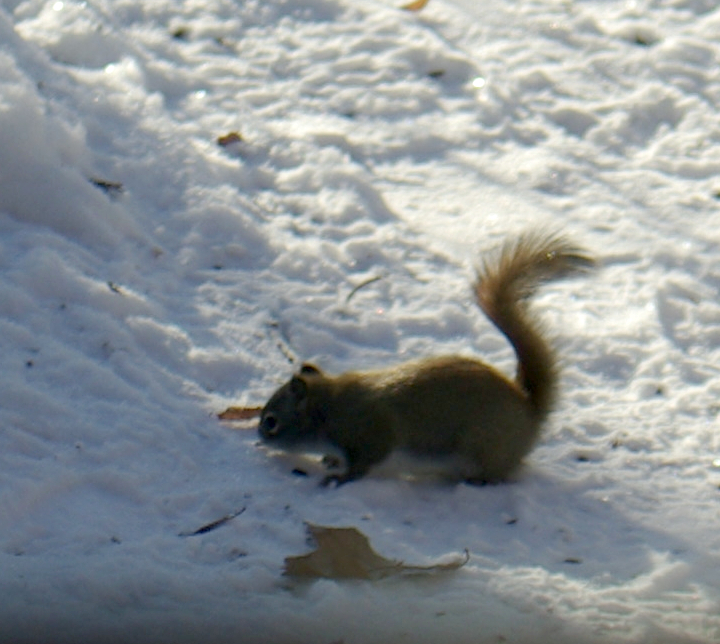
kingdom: Animalia
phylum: Chordata
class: Mammalia
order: Rodentia
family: Sciuridae
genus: Tamiasciurus
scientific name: Tamiasciurus hudsonicus
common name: Red squirrel
